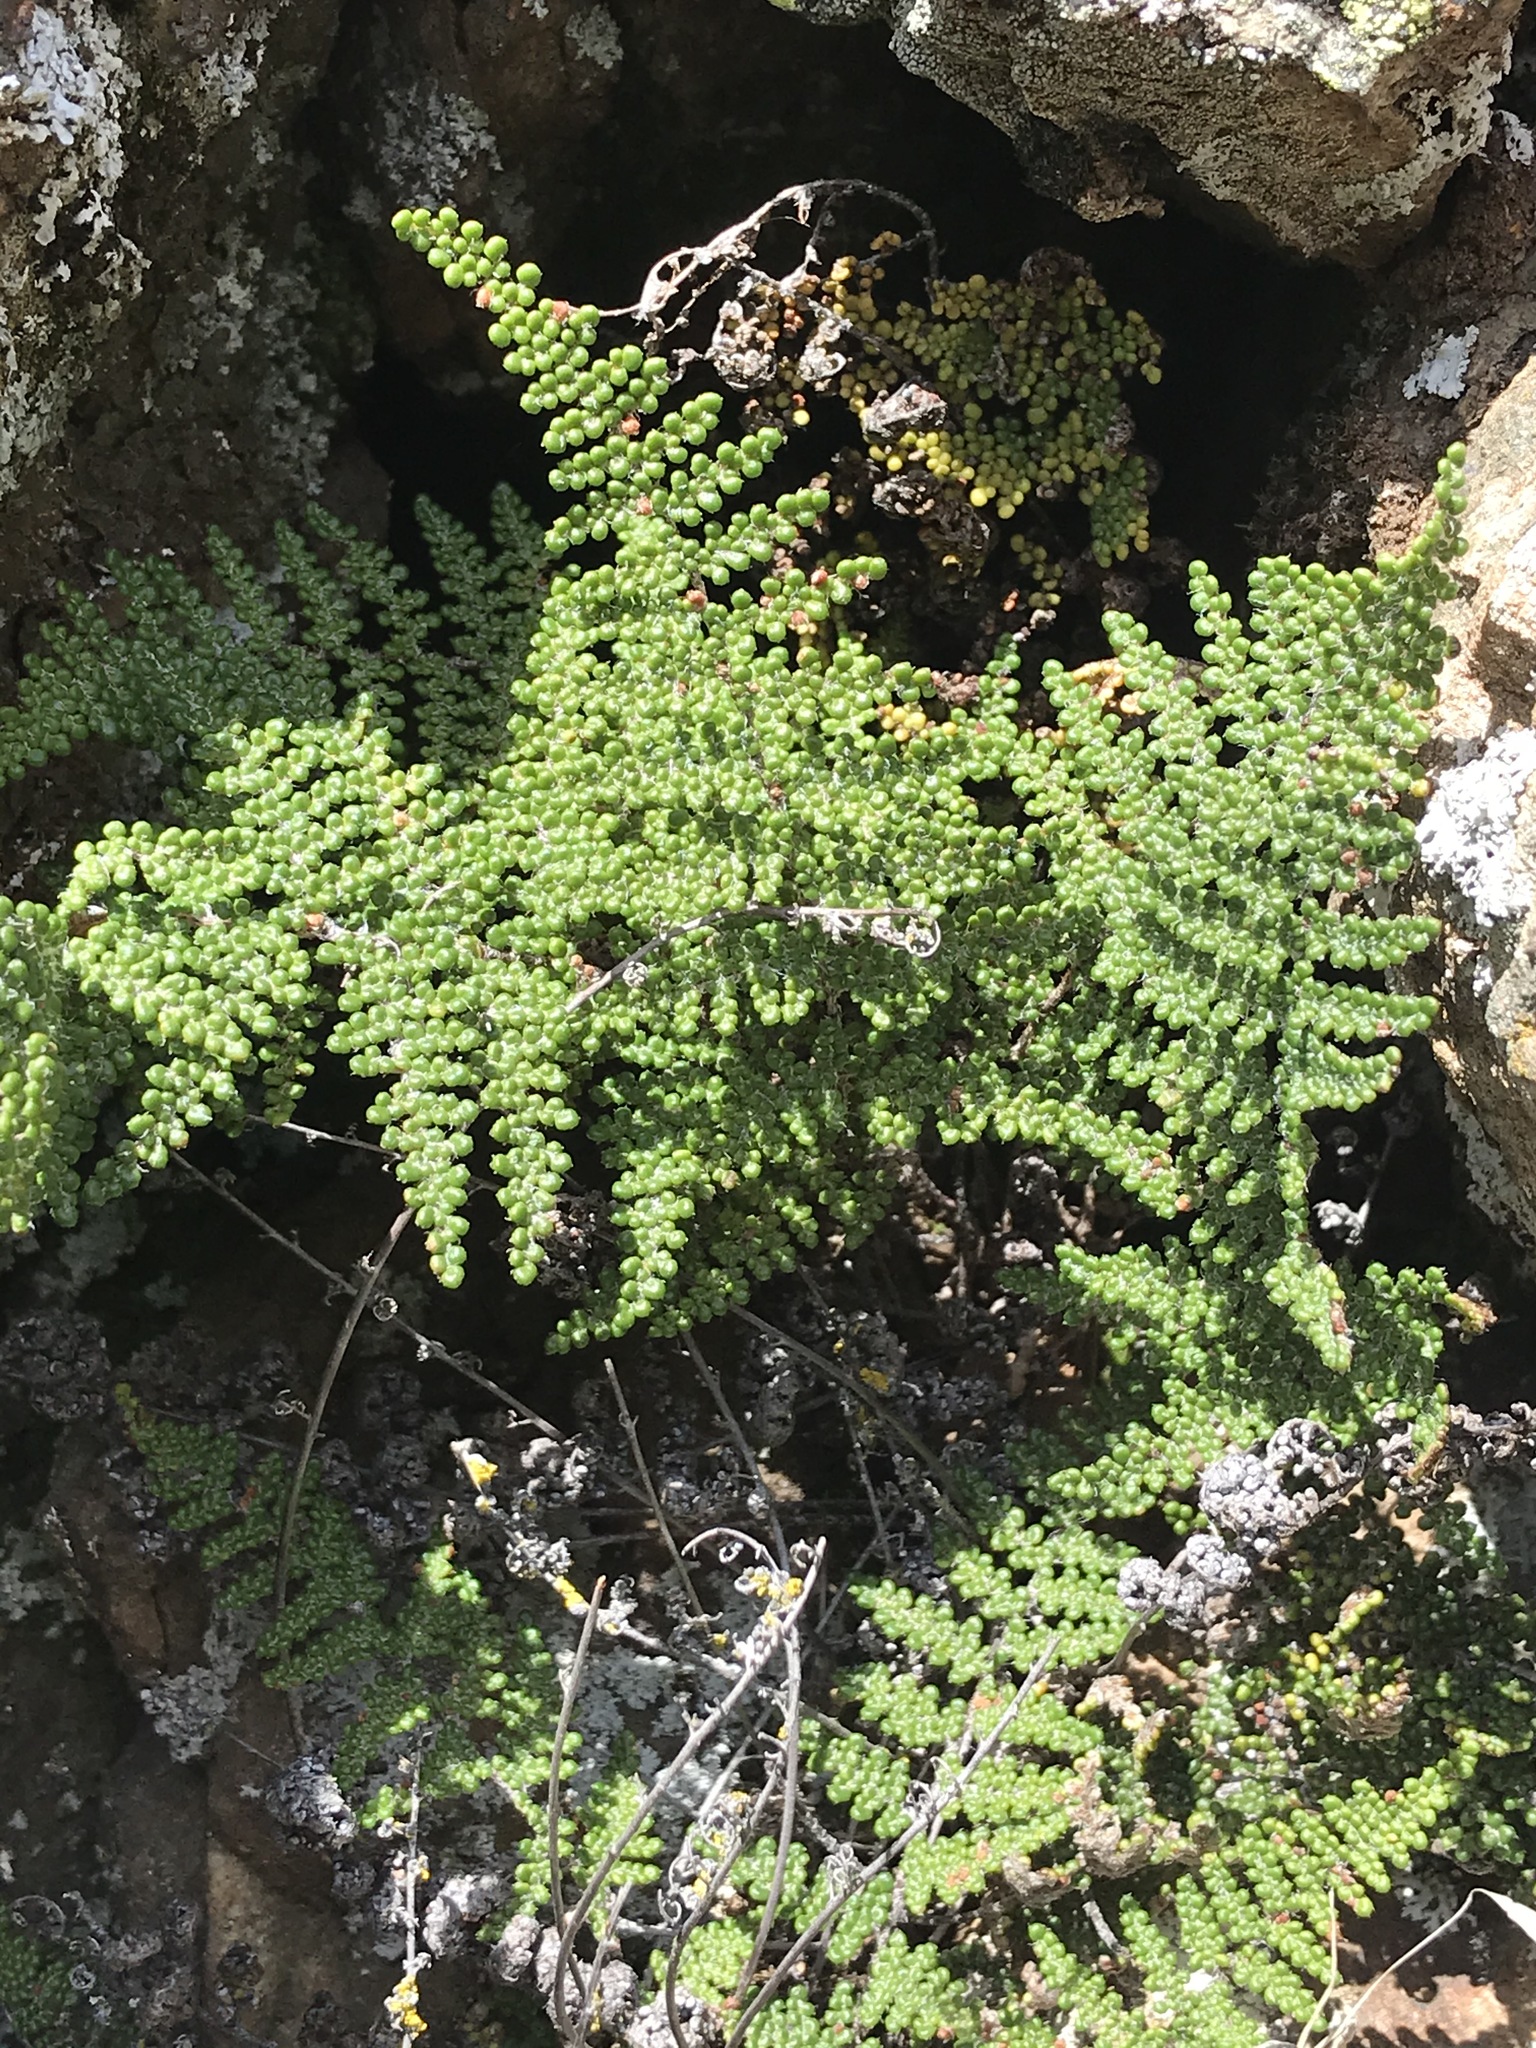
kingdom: Plantae
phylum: Tracheophyta
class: Polypodiopsida
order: Polypodiales
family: Pteridaceae
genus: Myriopteris
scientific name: Myriopteris covillei
